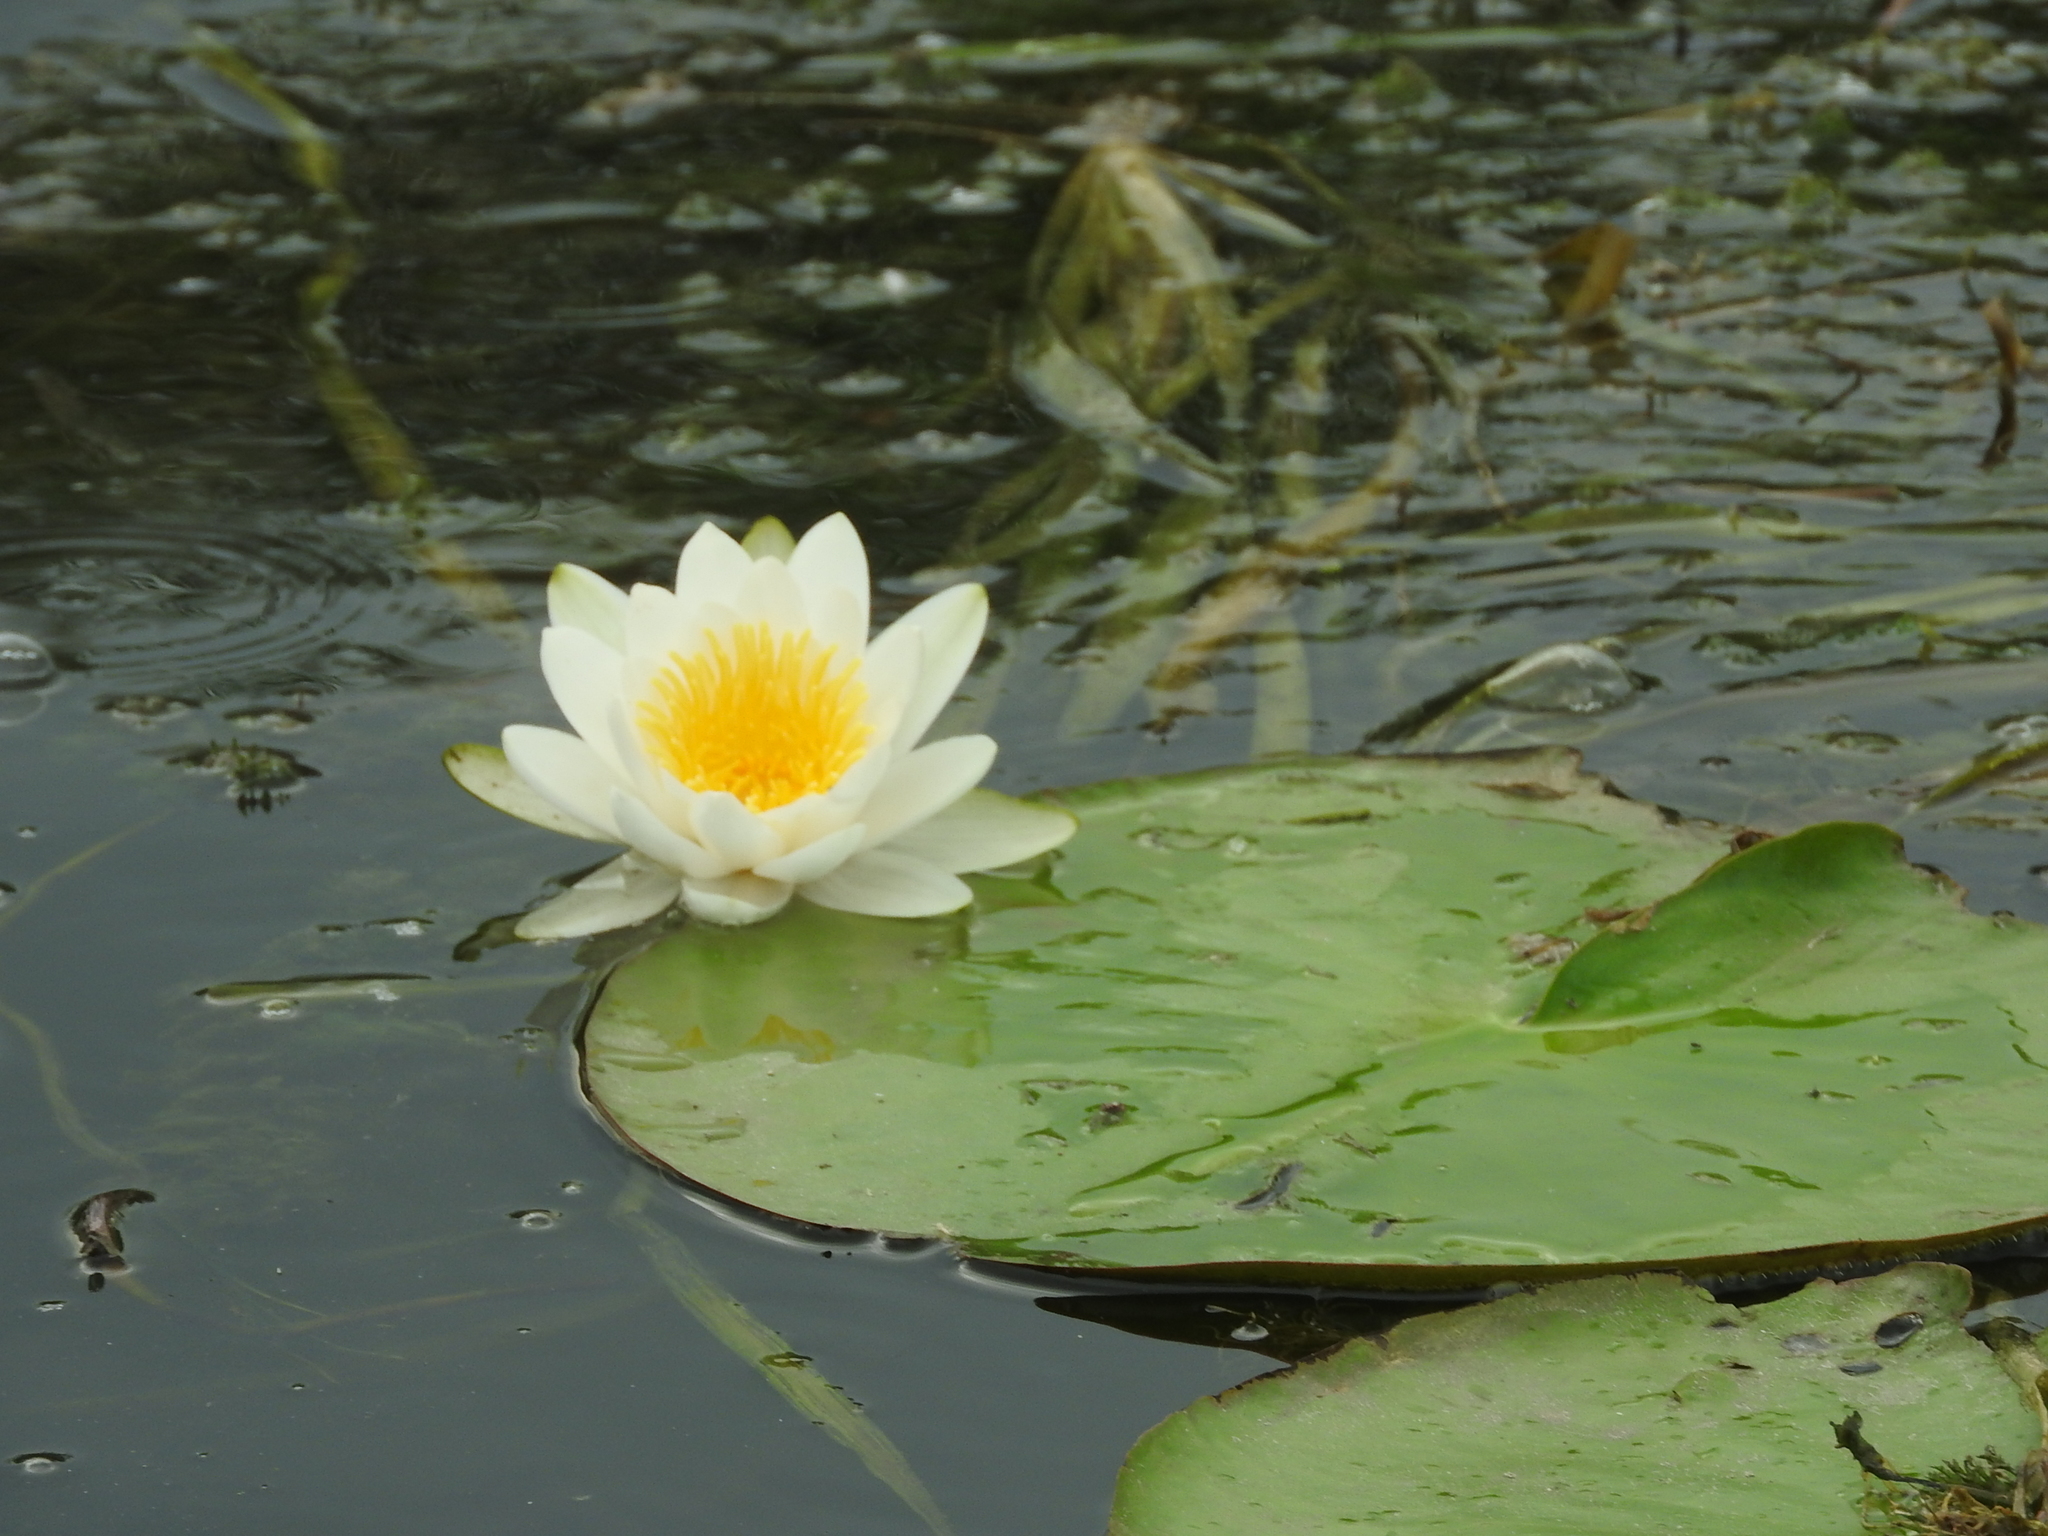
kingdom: Plantae
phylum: Tracheophyta
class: Magnoliopsida
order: Nymphaeales
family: Nymphaeaceae
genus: Nymphaea
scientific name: Nymphaea alba
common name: White water-lily
